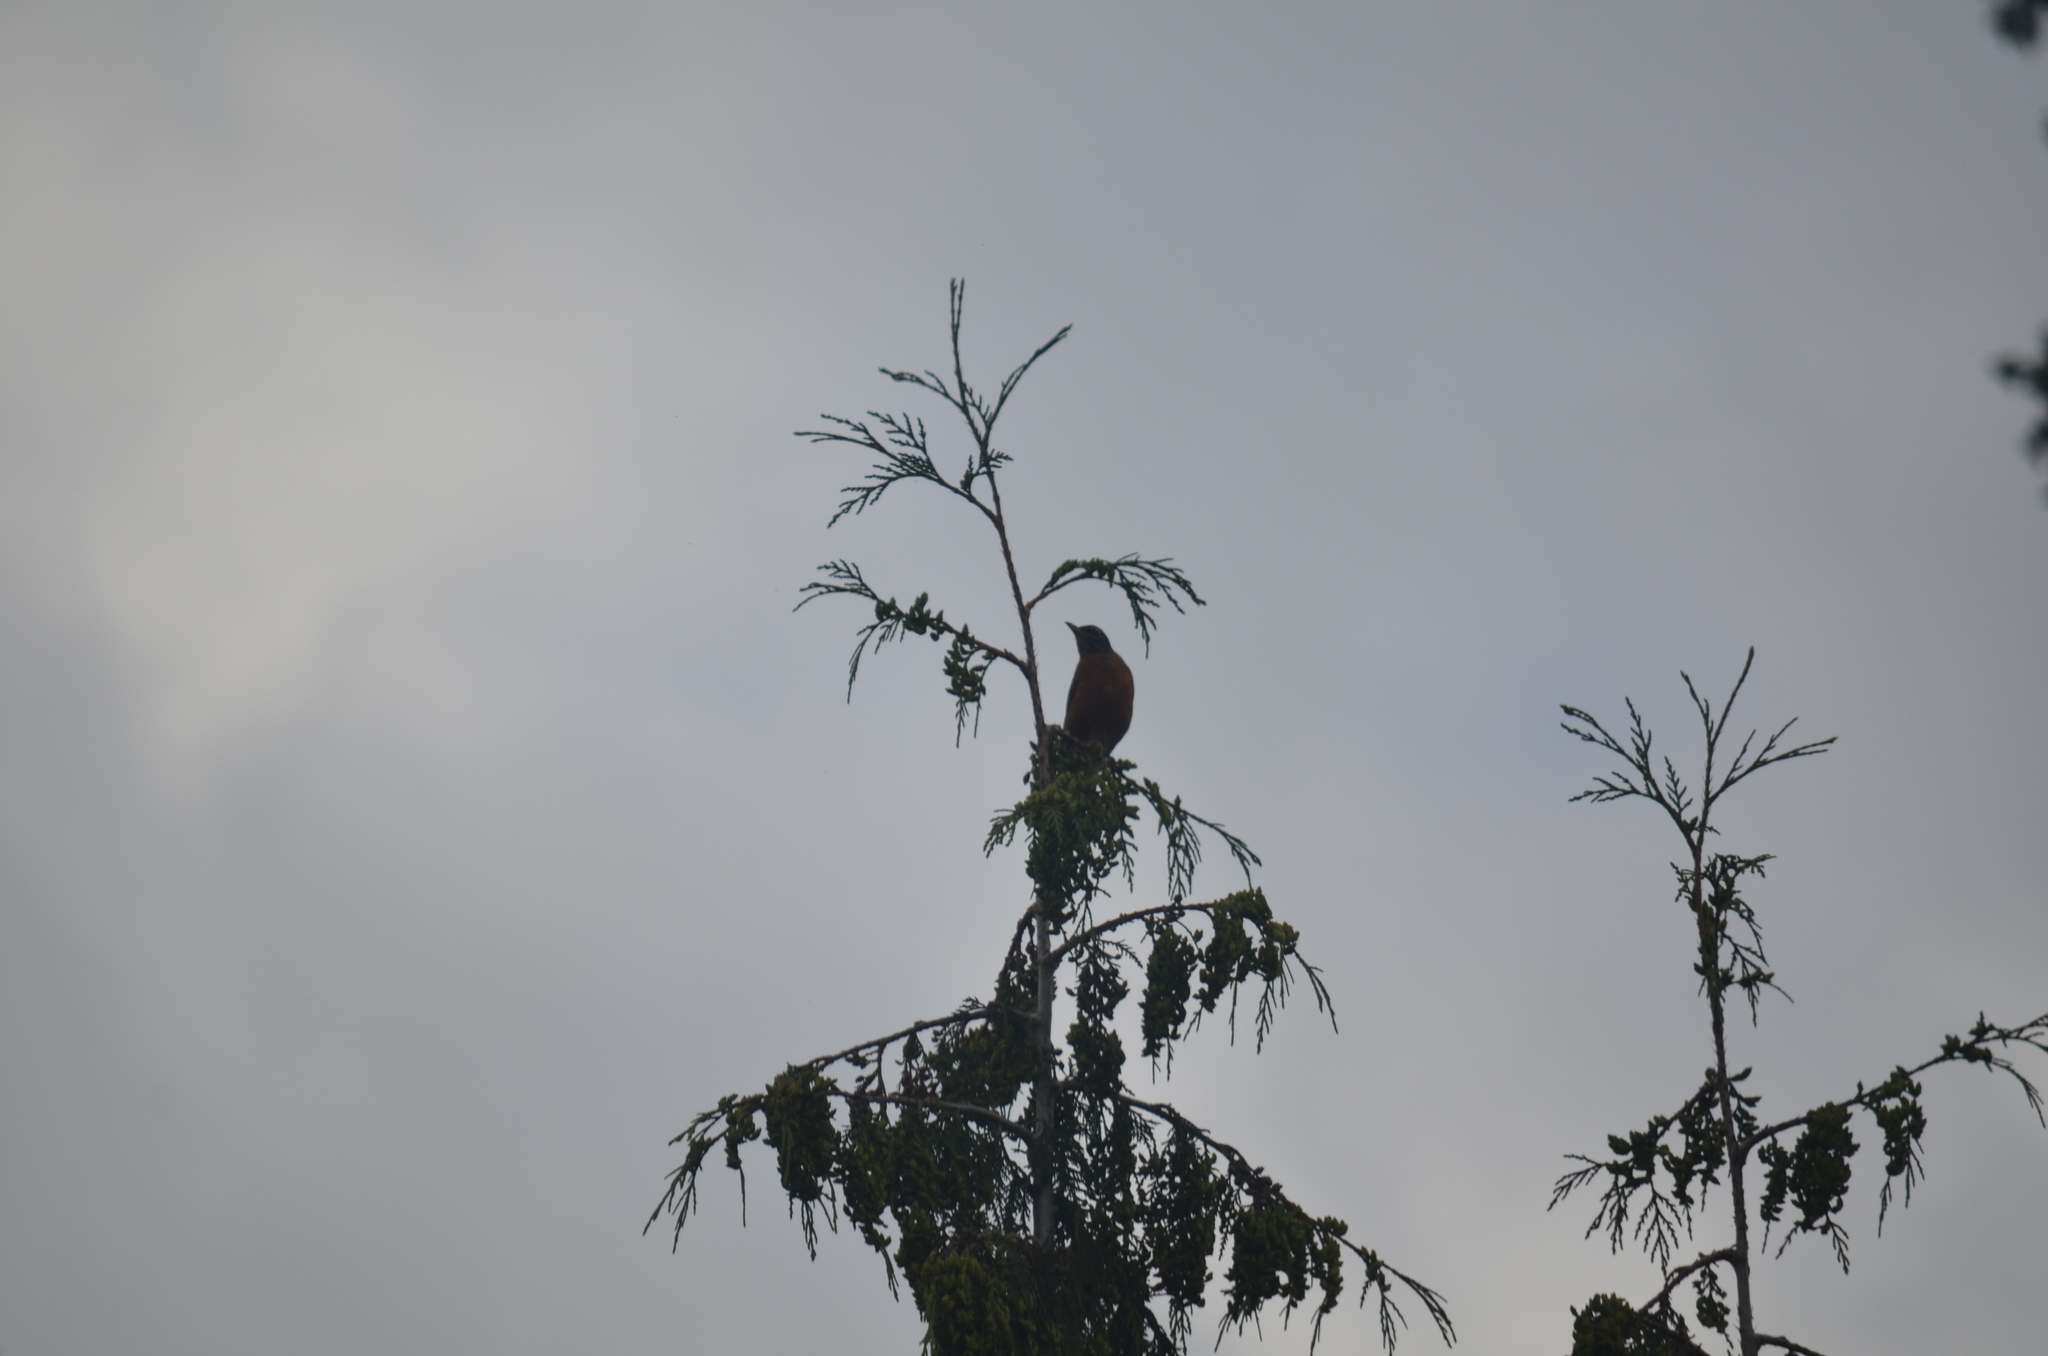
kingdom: Animalia
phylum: Chordata
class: Aves
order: Passeriformes
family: Turdidae
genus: Turdus
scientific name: Turdus migratorius
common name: American robin
